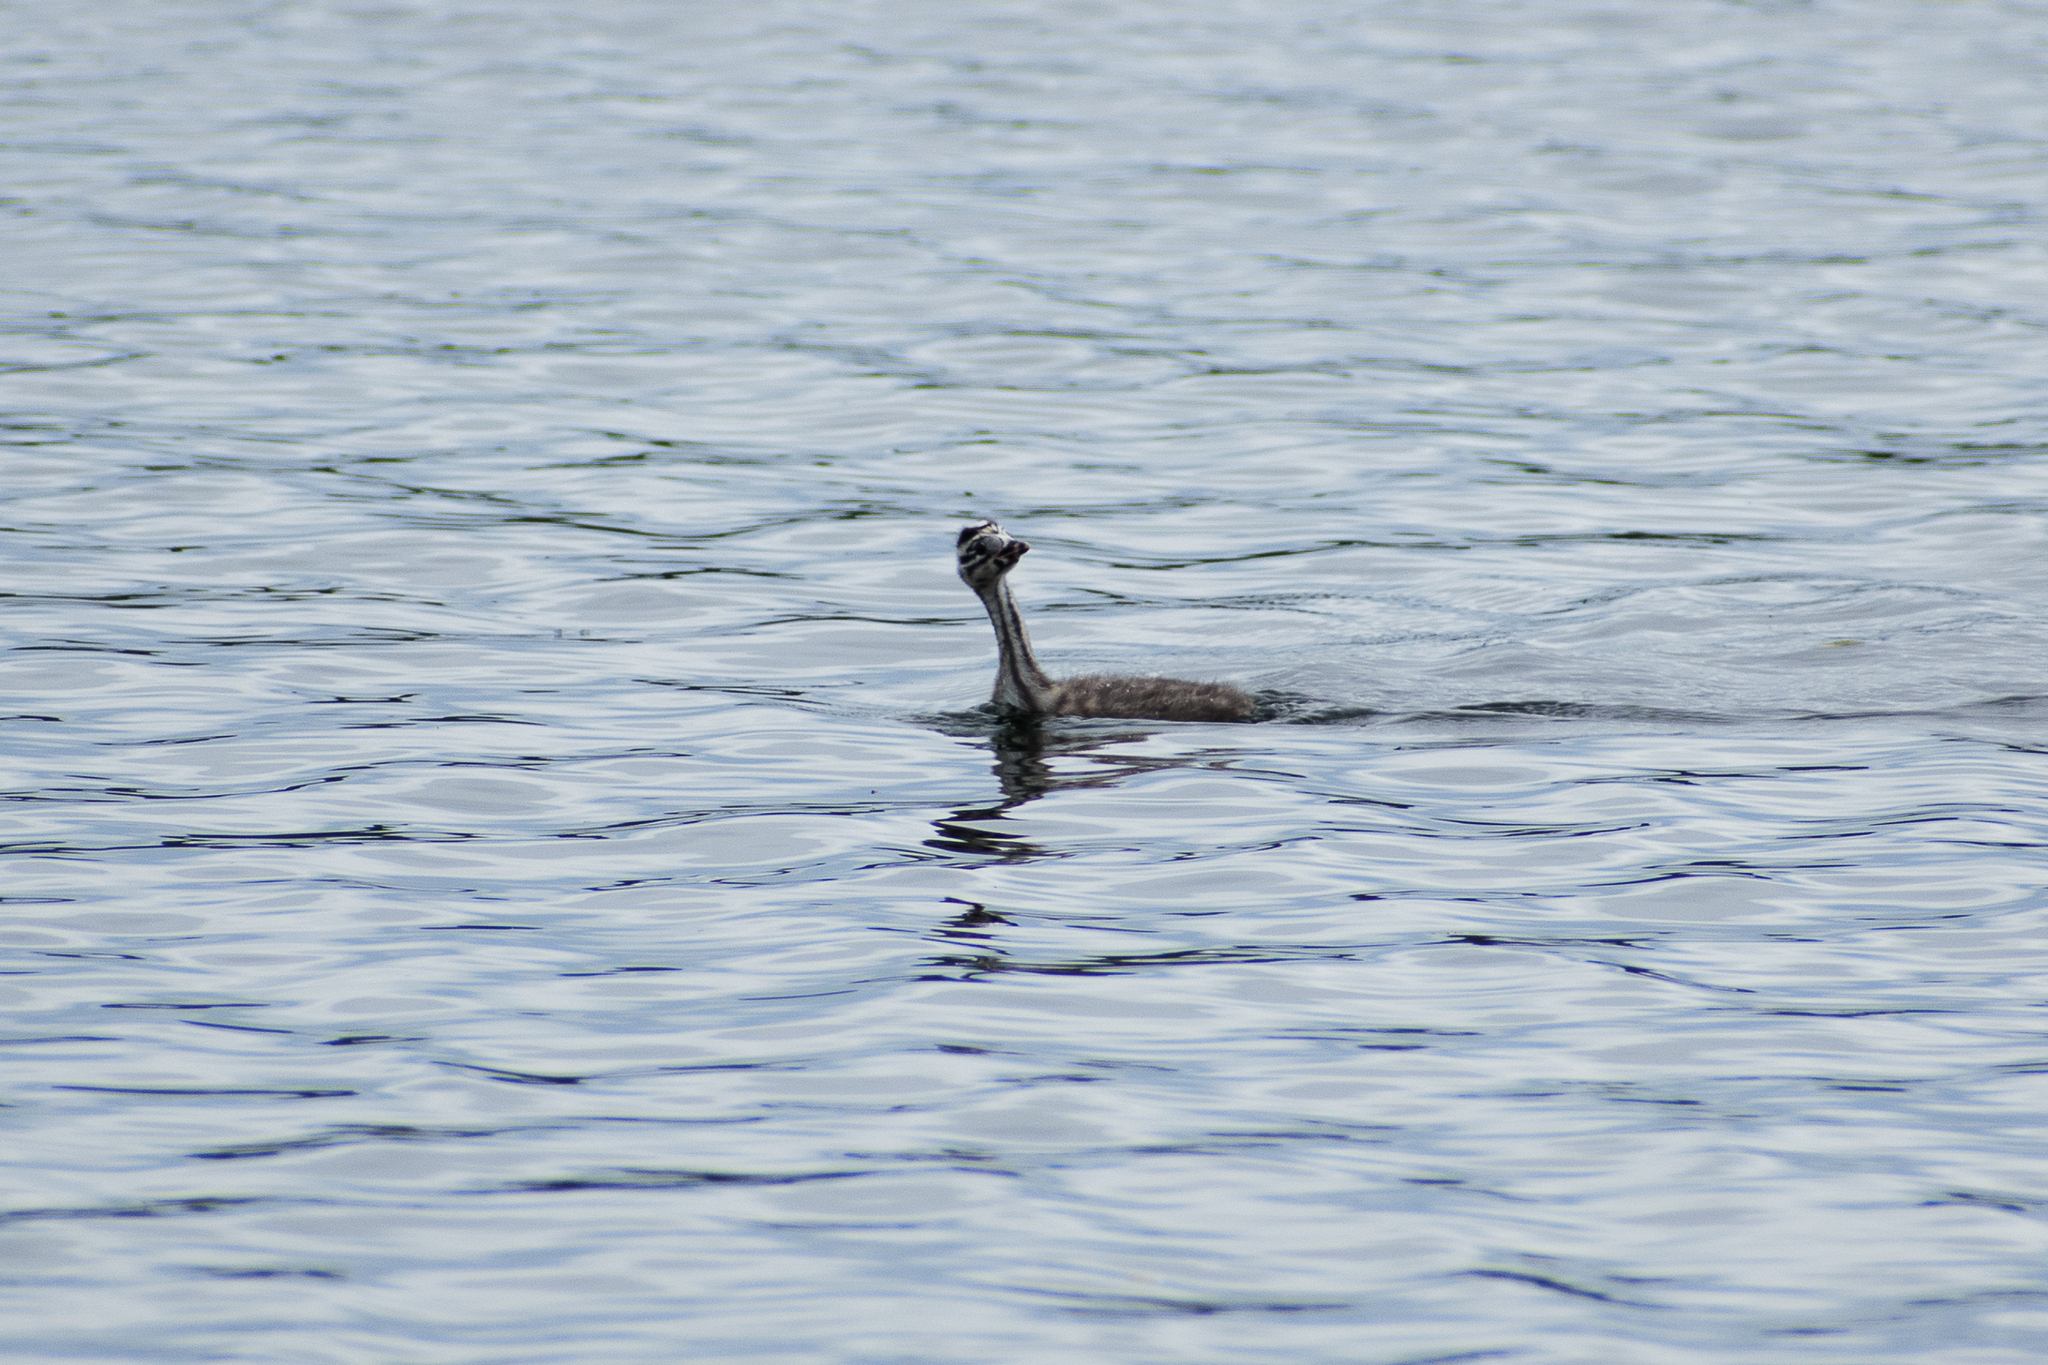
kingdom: Animalia
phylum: Chordata
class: Aves
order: Podicipediformes
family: Podicipedidae
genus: Podiceps
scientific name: Podiceps cristatus
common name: Great crested grebe
